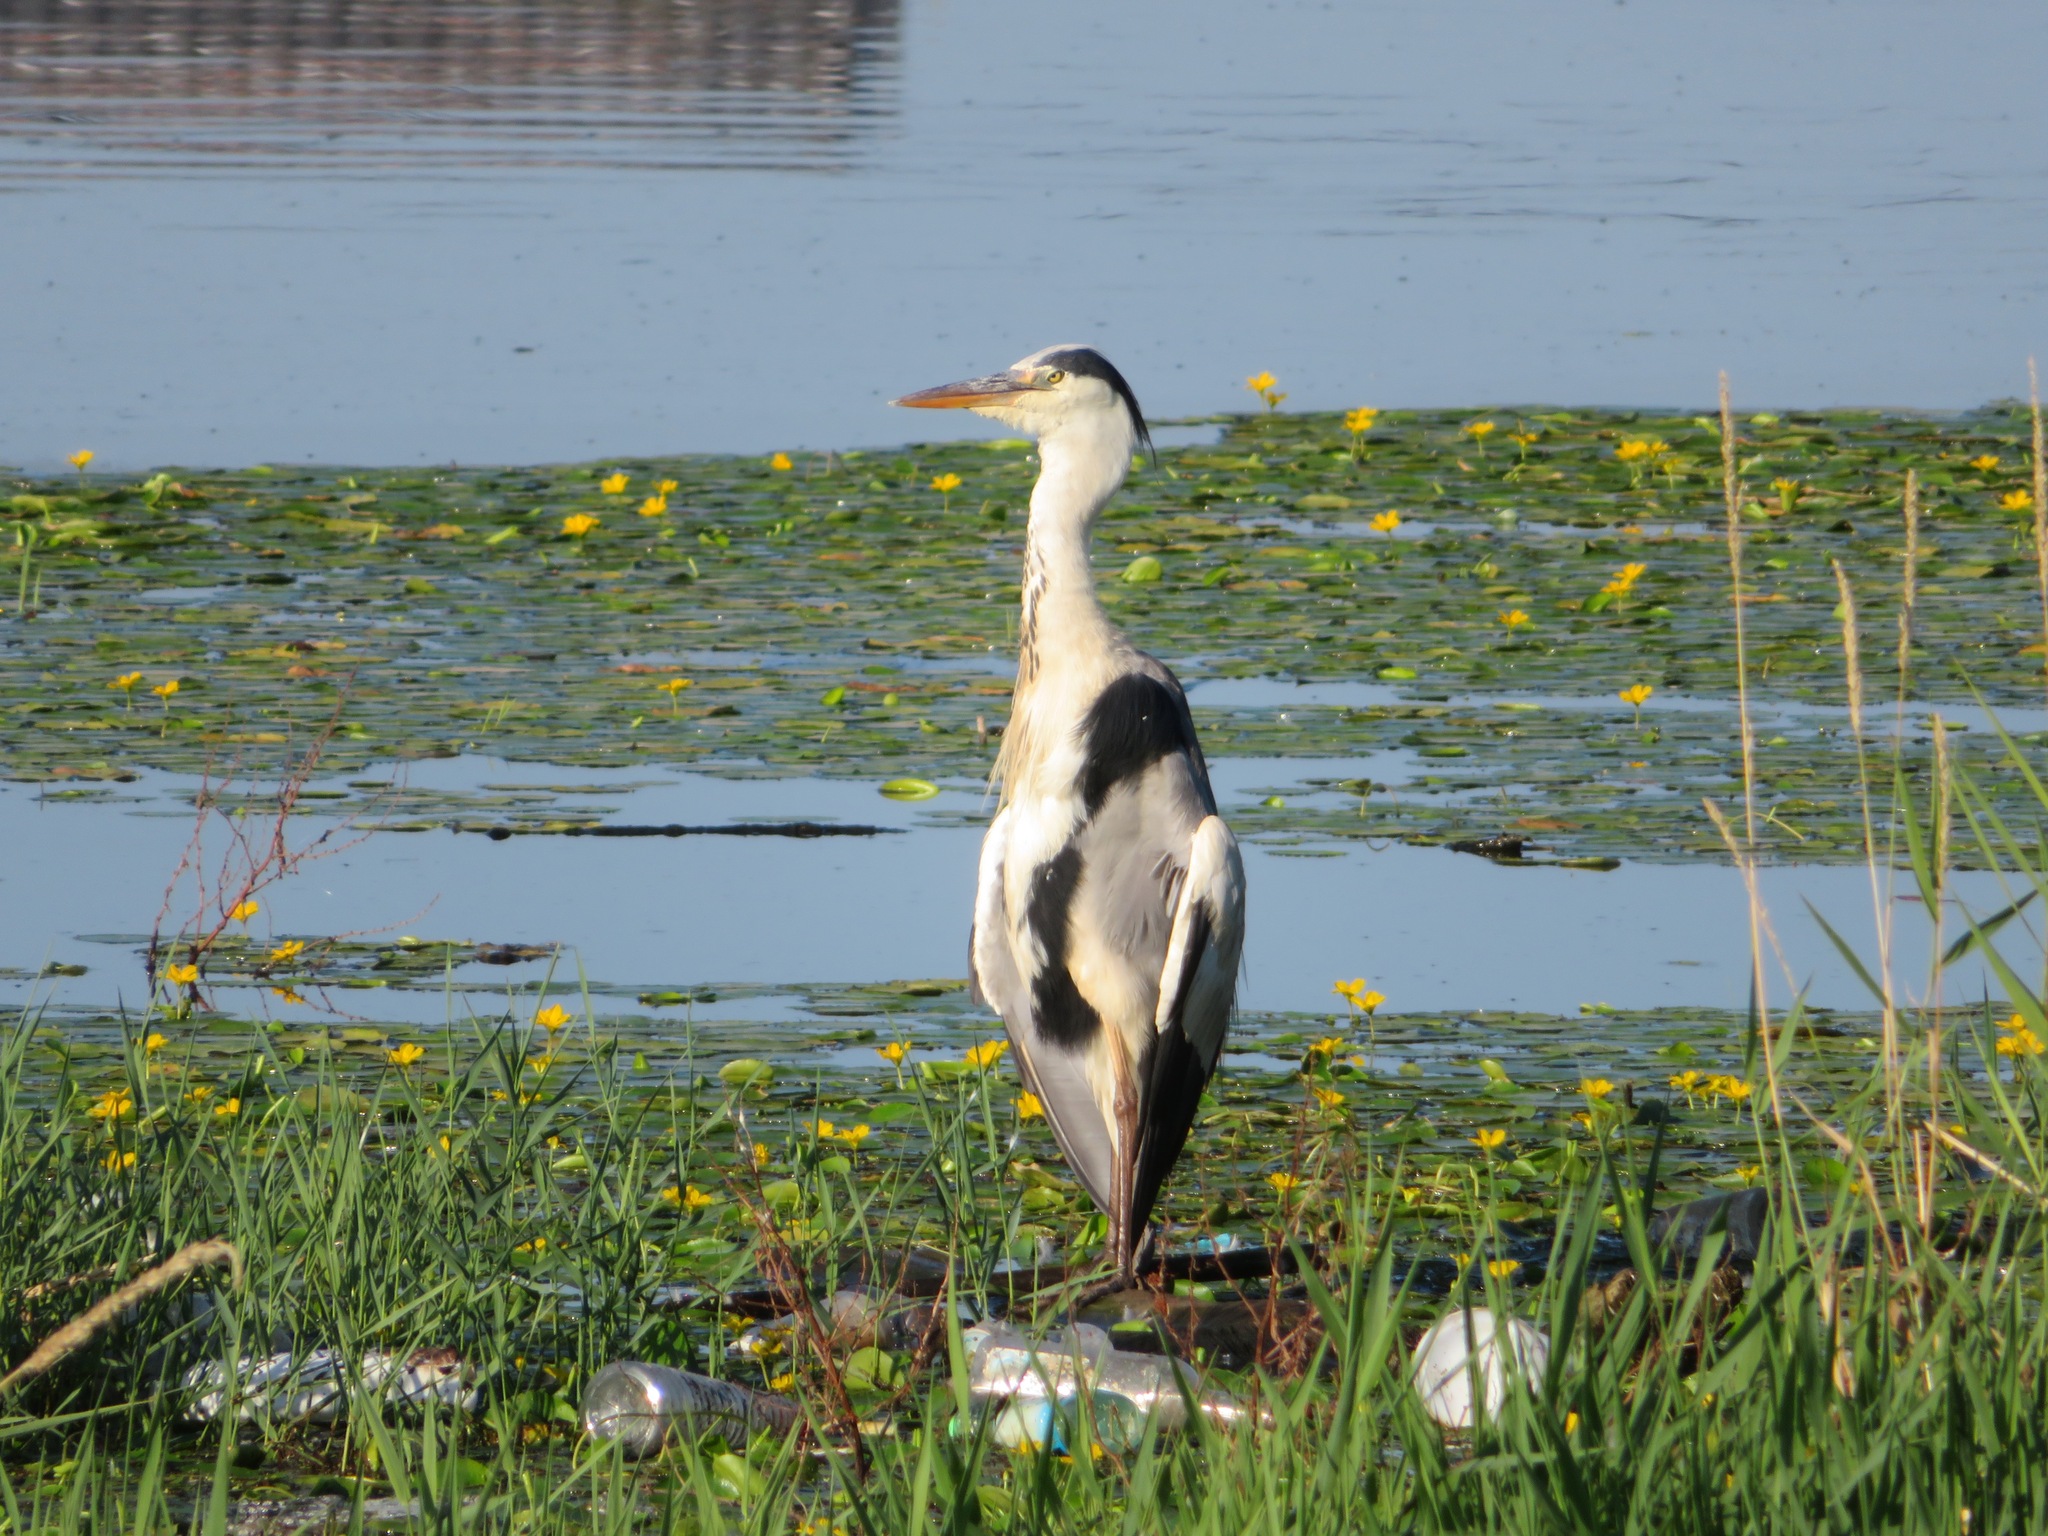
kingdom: Animalia
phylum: Chordata
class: Aves
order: Pelecaniformes
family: Ardeidae
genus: Ardea
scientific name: Ardea cinerea
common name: Grey heron
